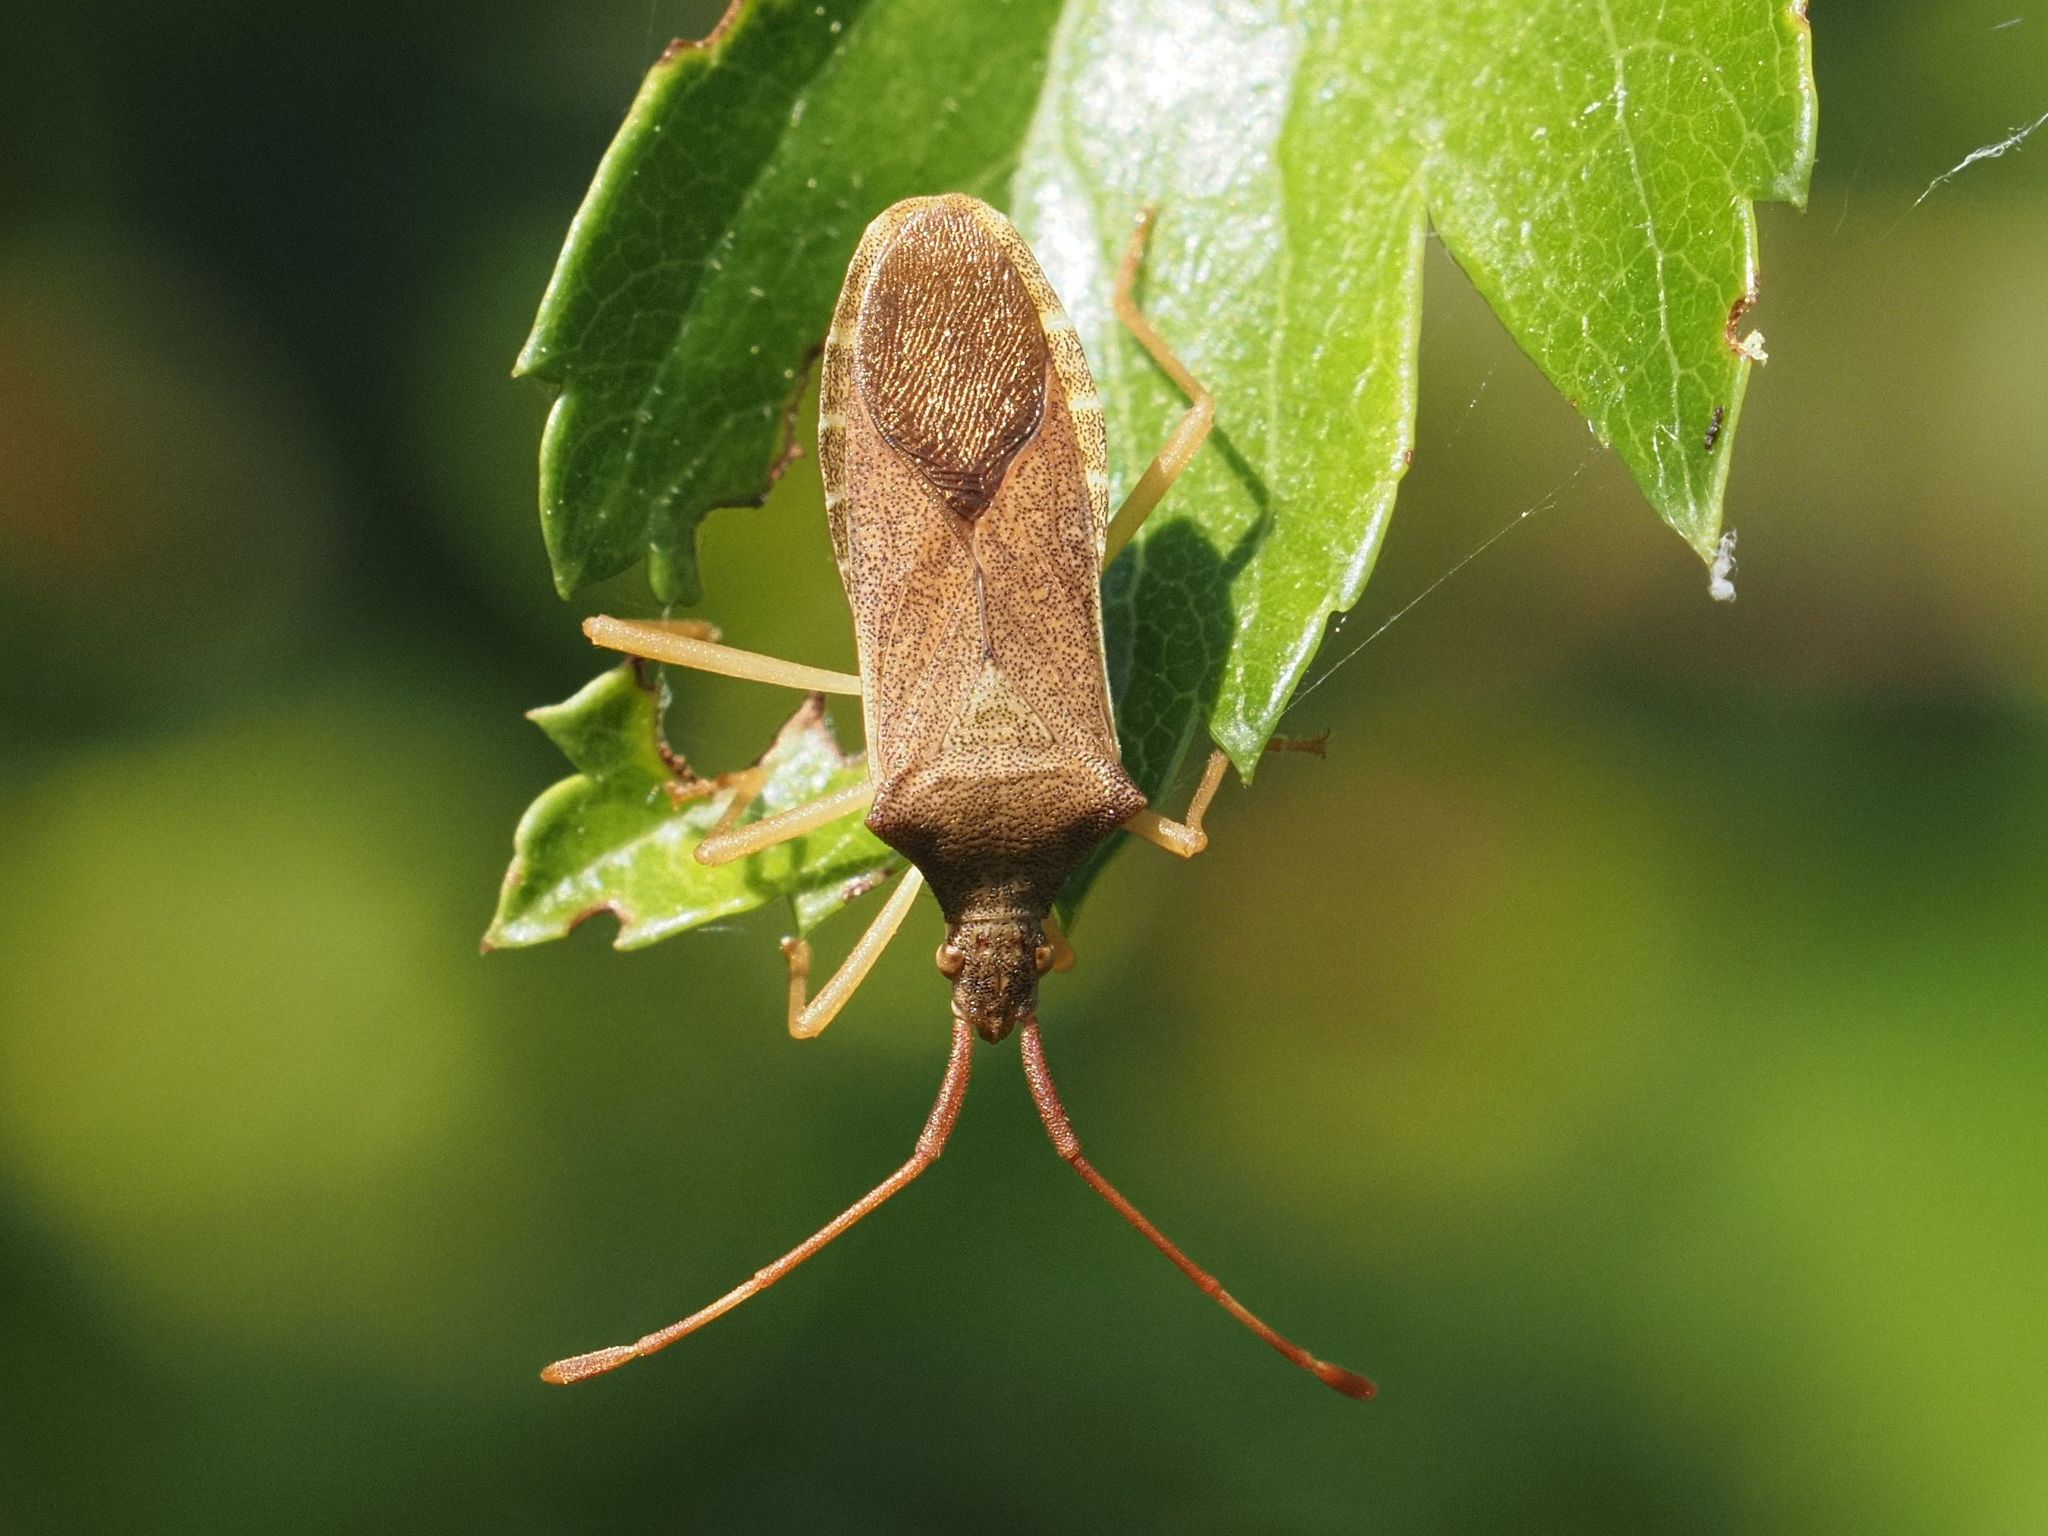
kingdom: Animalia
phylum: Arthropoda
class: Insecta
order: Hemiptera
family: Coreidae
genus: Gonocerus
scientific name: Gonocerus acuteangulatus
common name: Box bug
